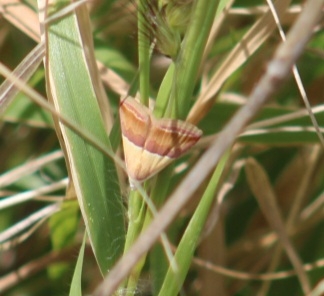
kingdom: Animalia
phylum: Arthropoda
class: Insecta
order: Lepidoptera
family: Noctuidae
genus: Eublemma
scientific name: Eublemma accedens
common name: Moth
